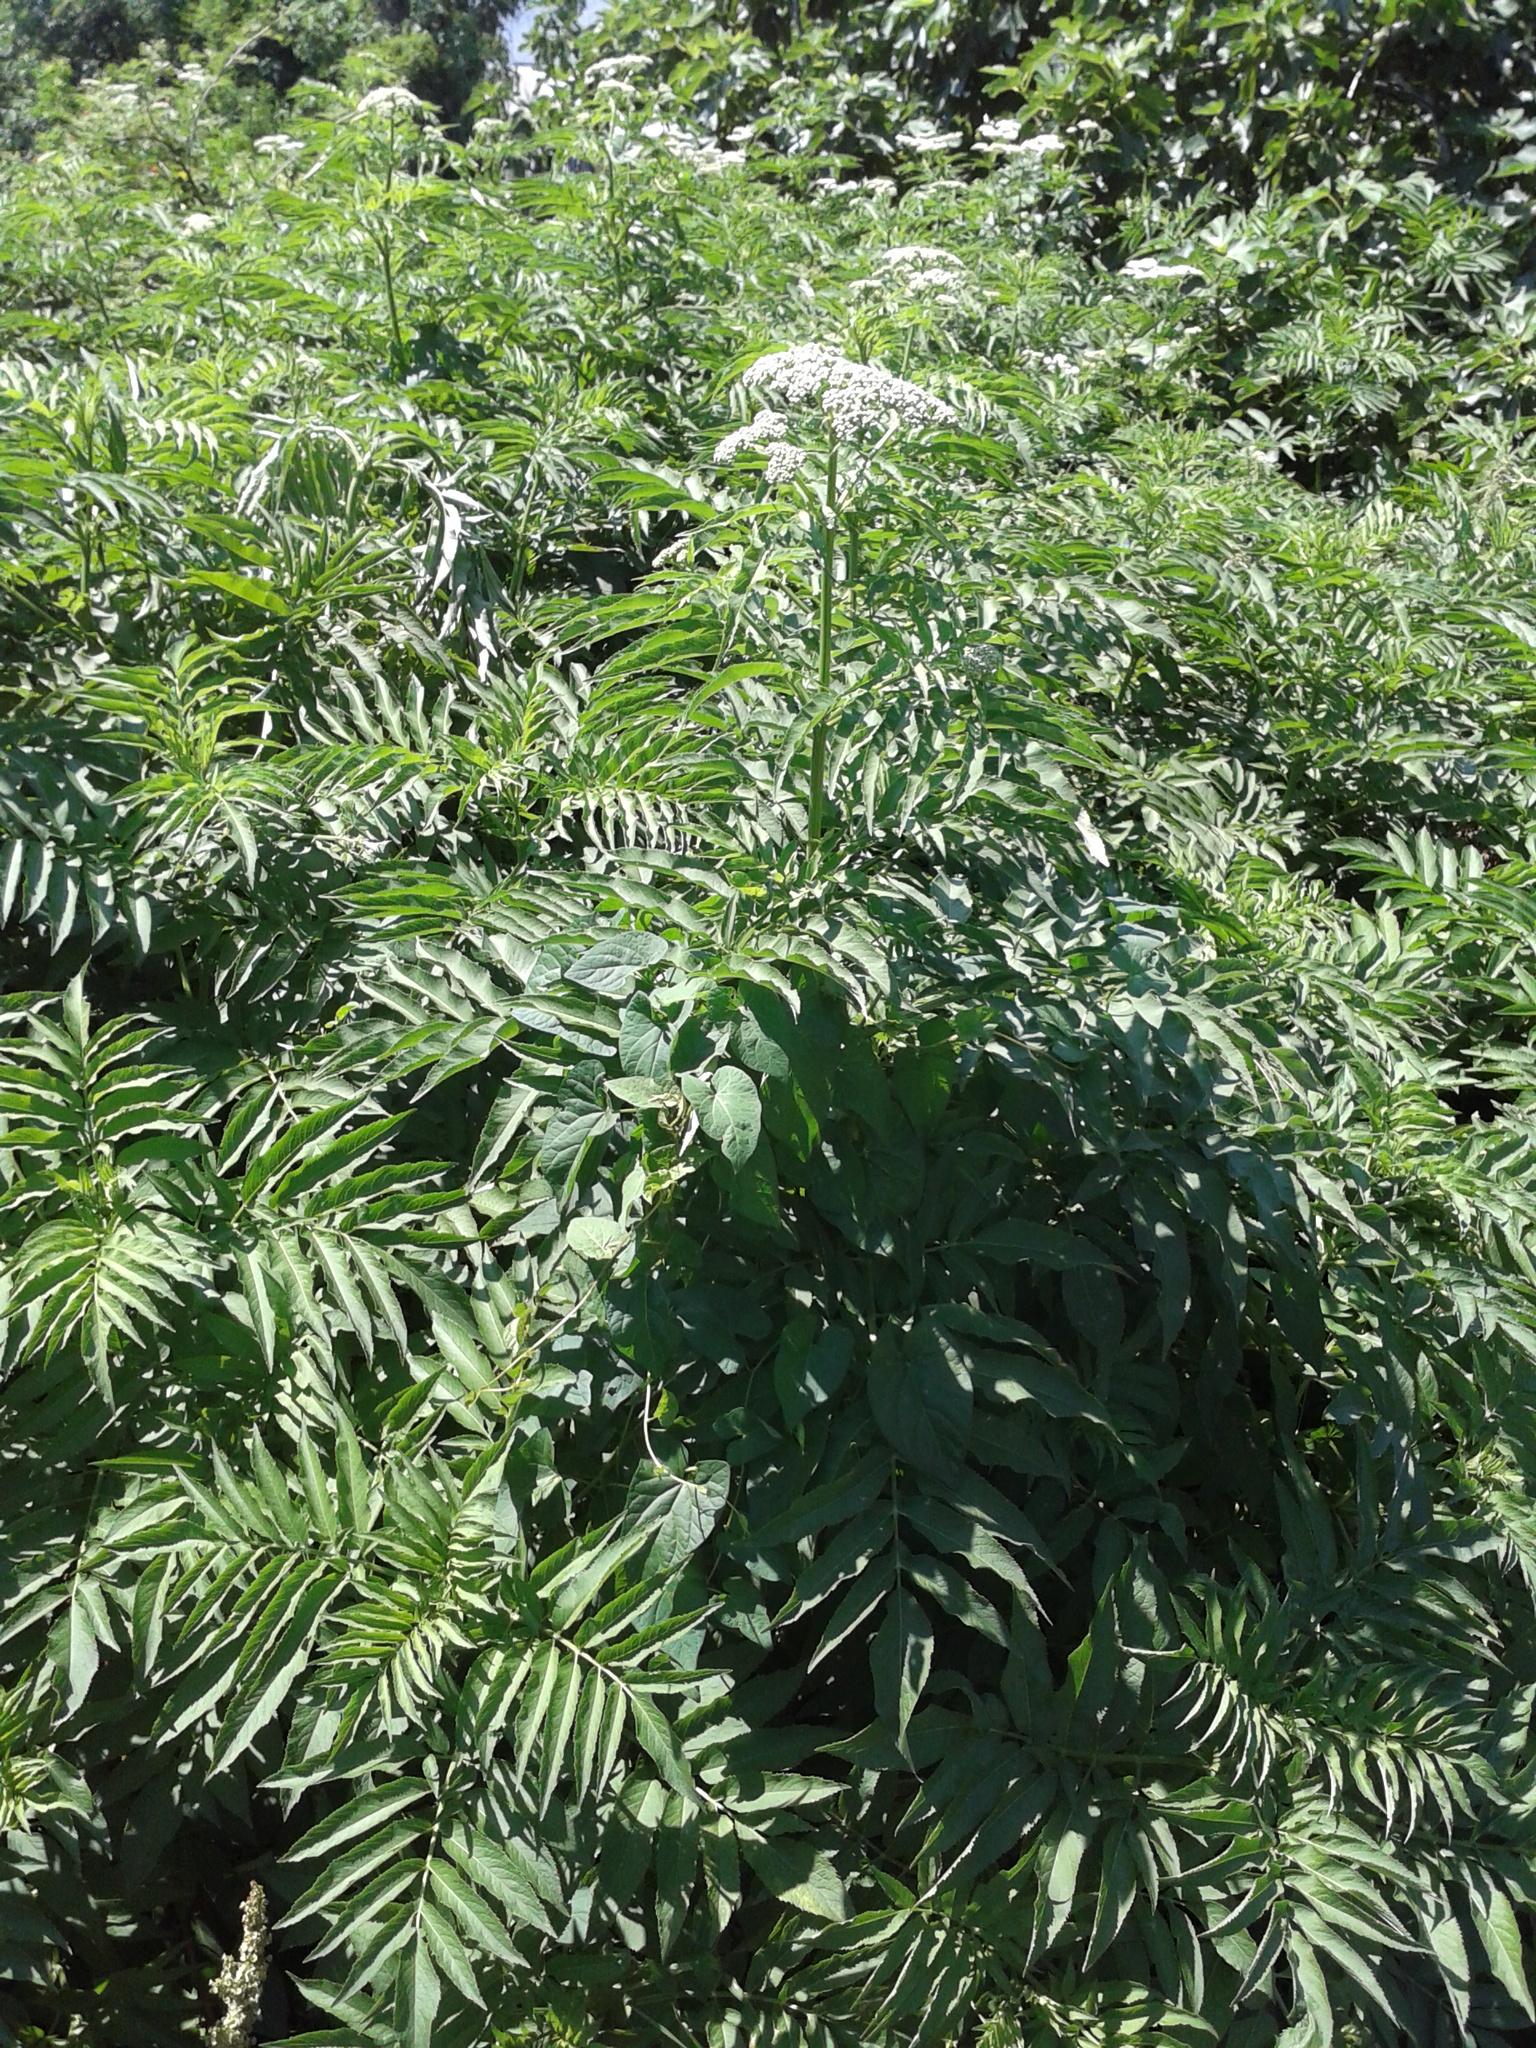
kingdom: Plantae
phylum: Tracheophyta
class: Magnoliopsida
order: Dipsacales
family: Viburnaceae
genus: Sambucus
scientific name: Sambucus ebulus
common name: Dwarf elder
